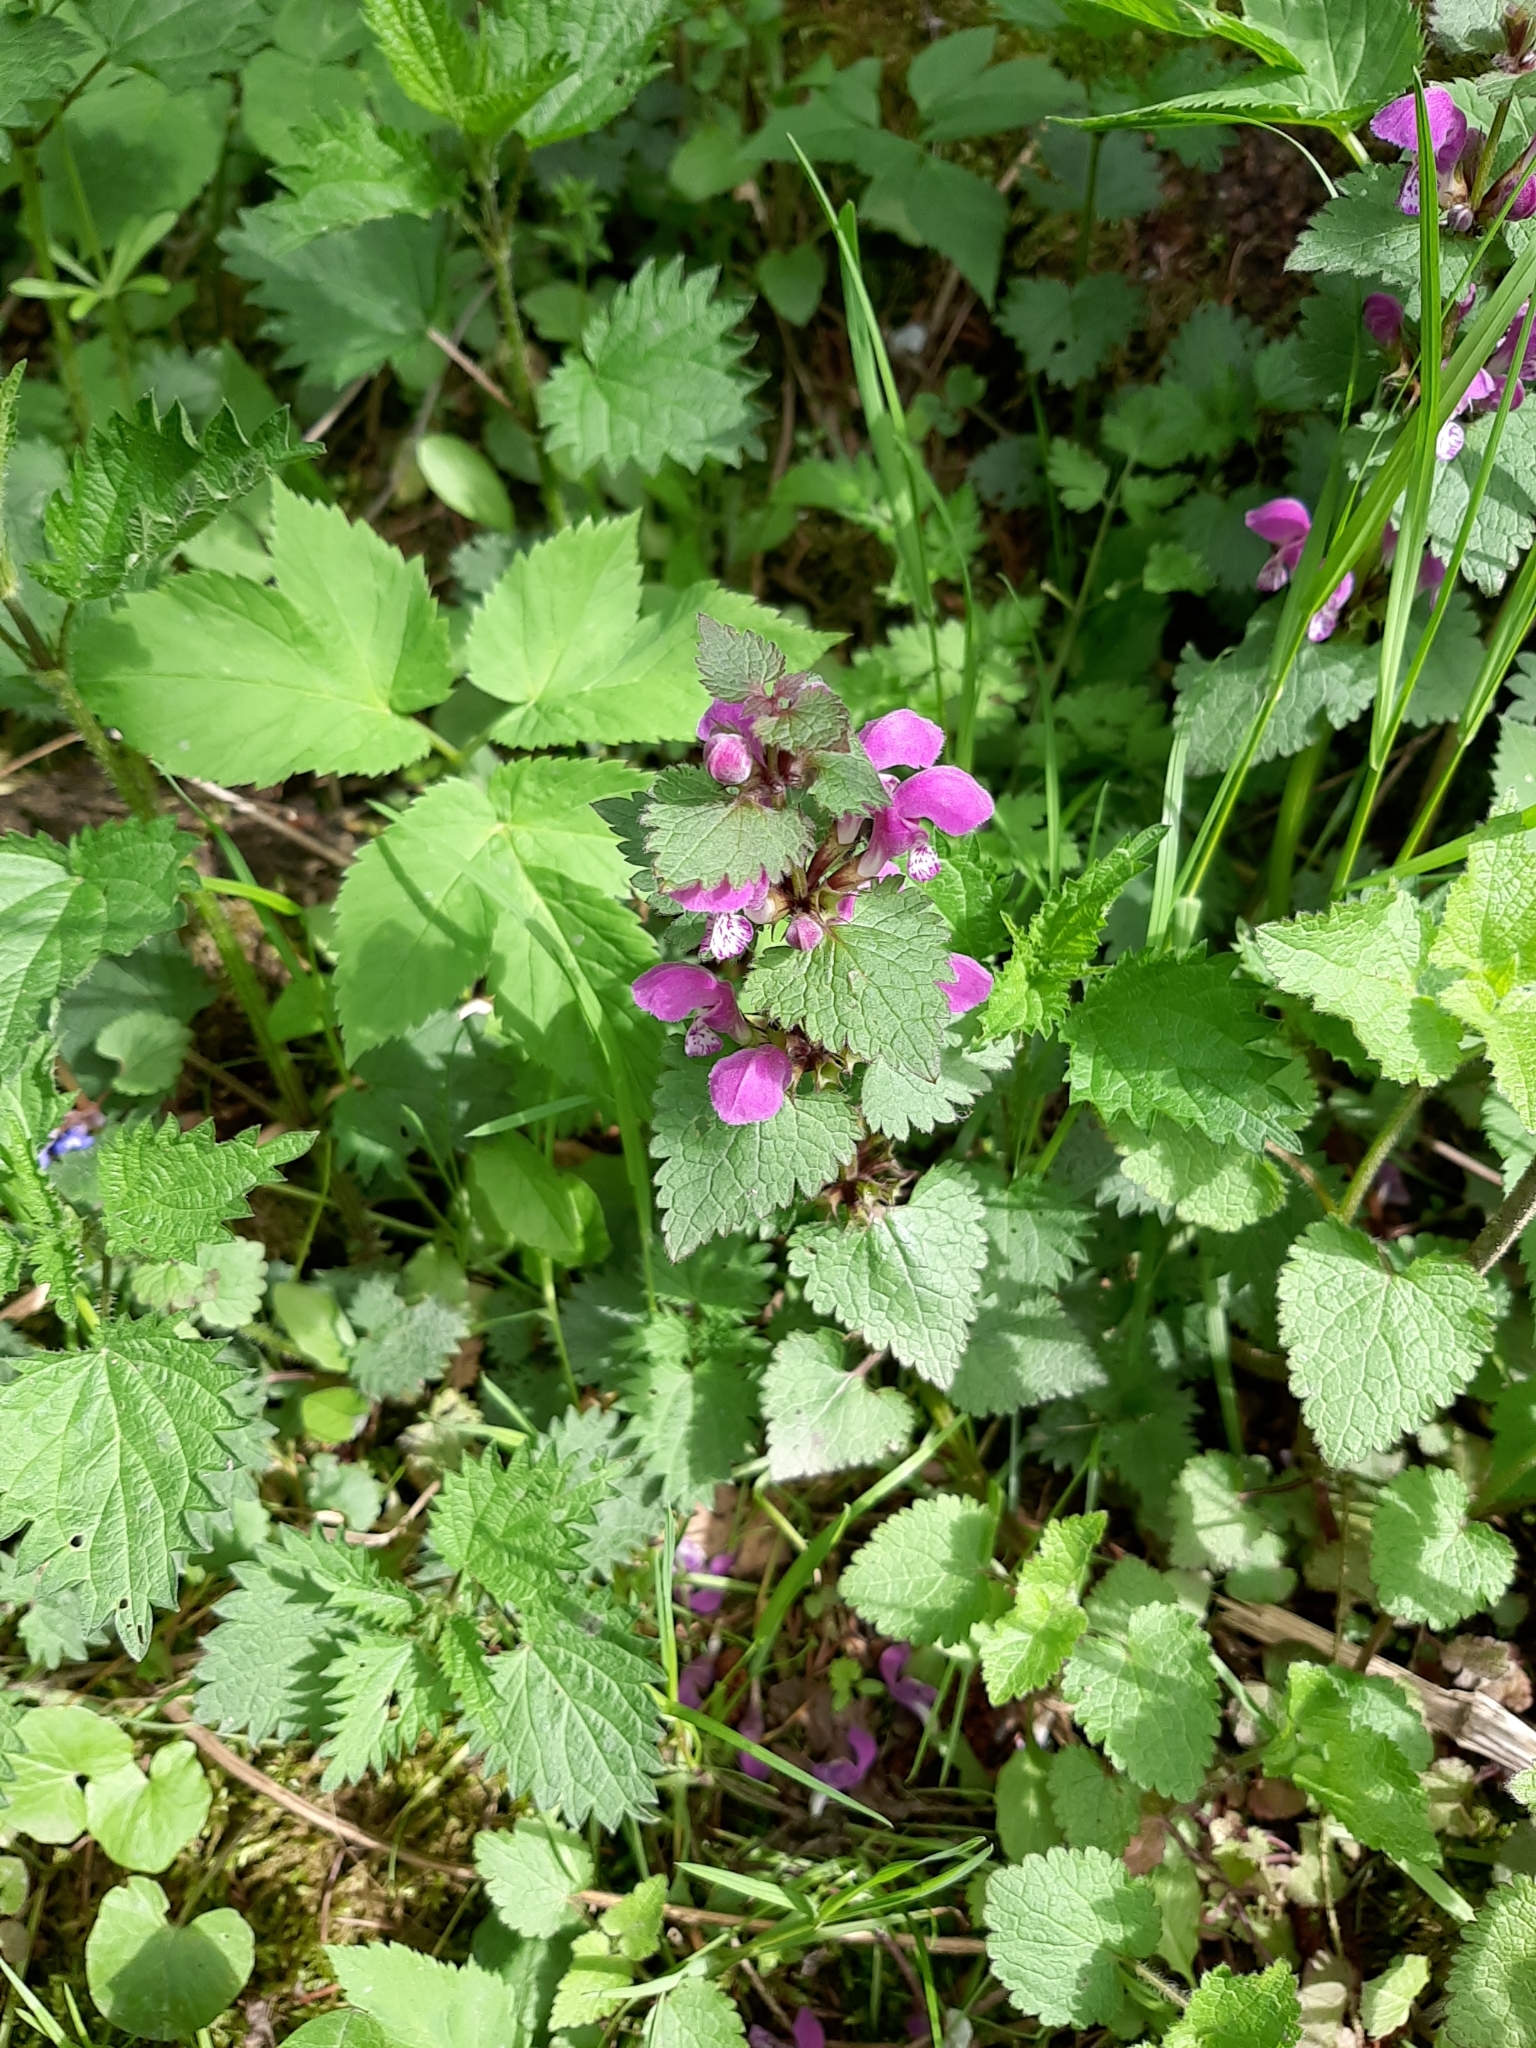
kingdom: Plantae
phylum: Tracheophyta
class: Magnoliopsida
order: Lamiales
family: Lamiaceae
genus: Lamium
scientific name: Lamium maculatum
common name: Spotted dead-nettle
